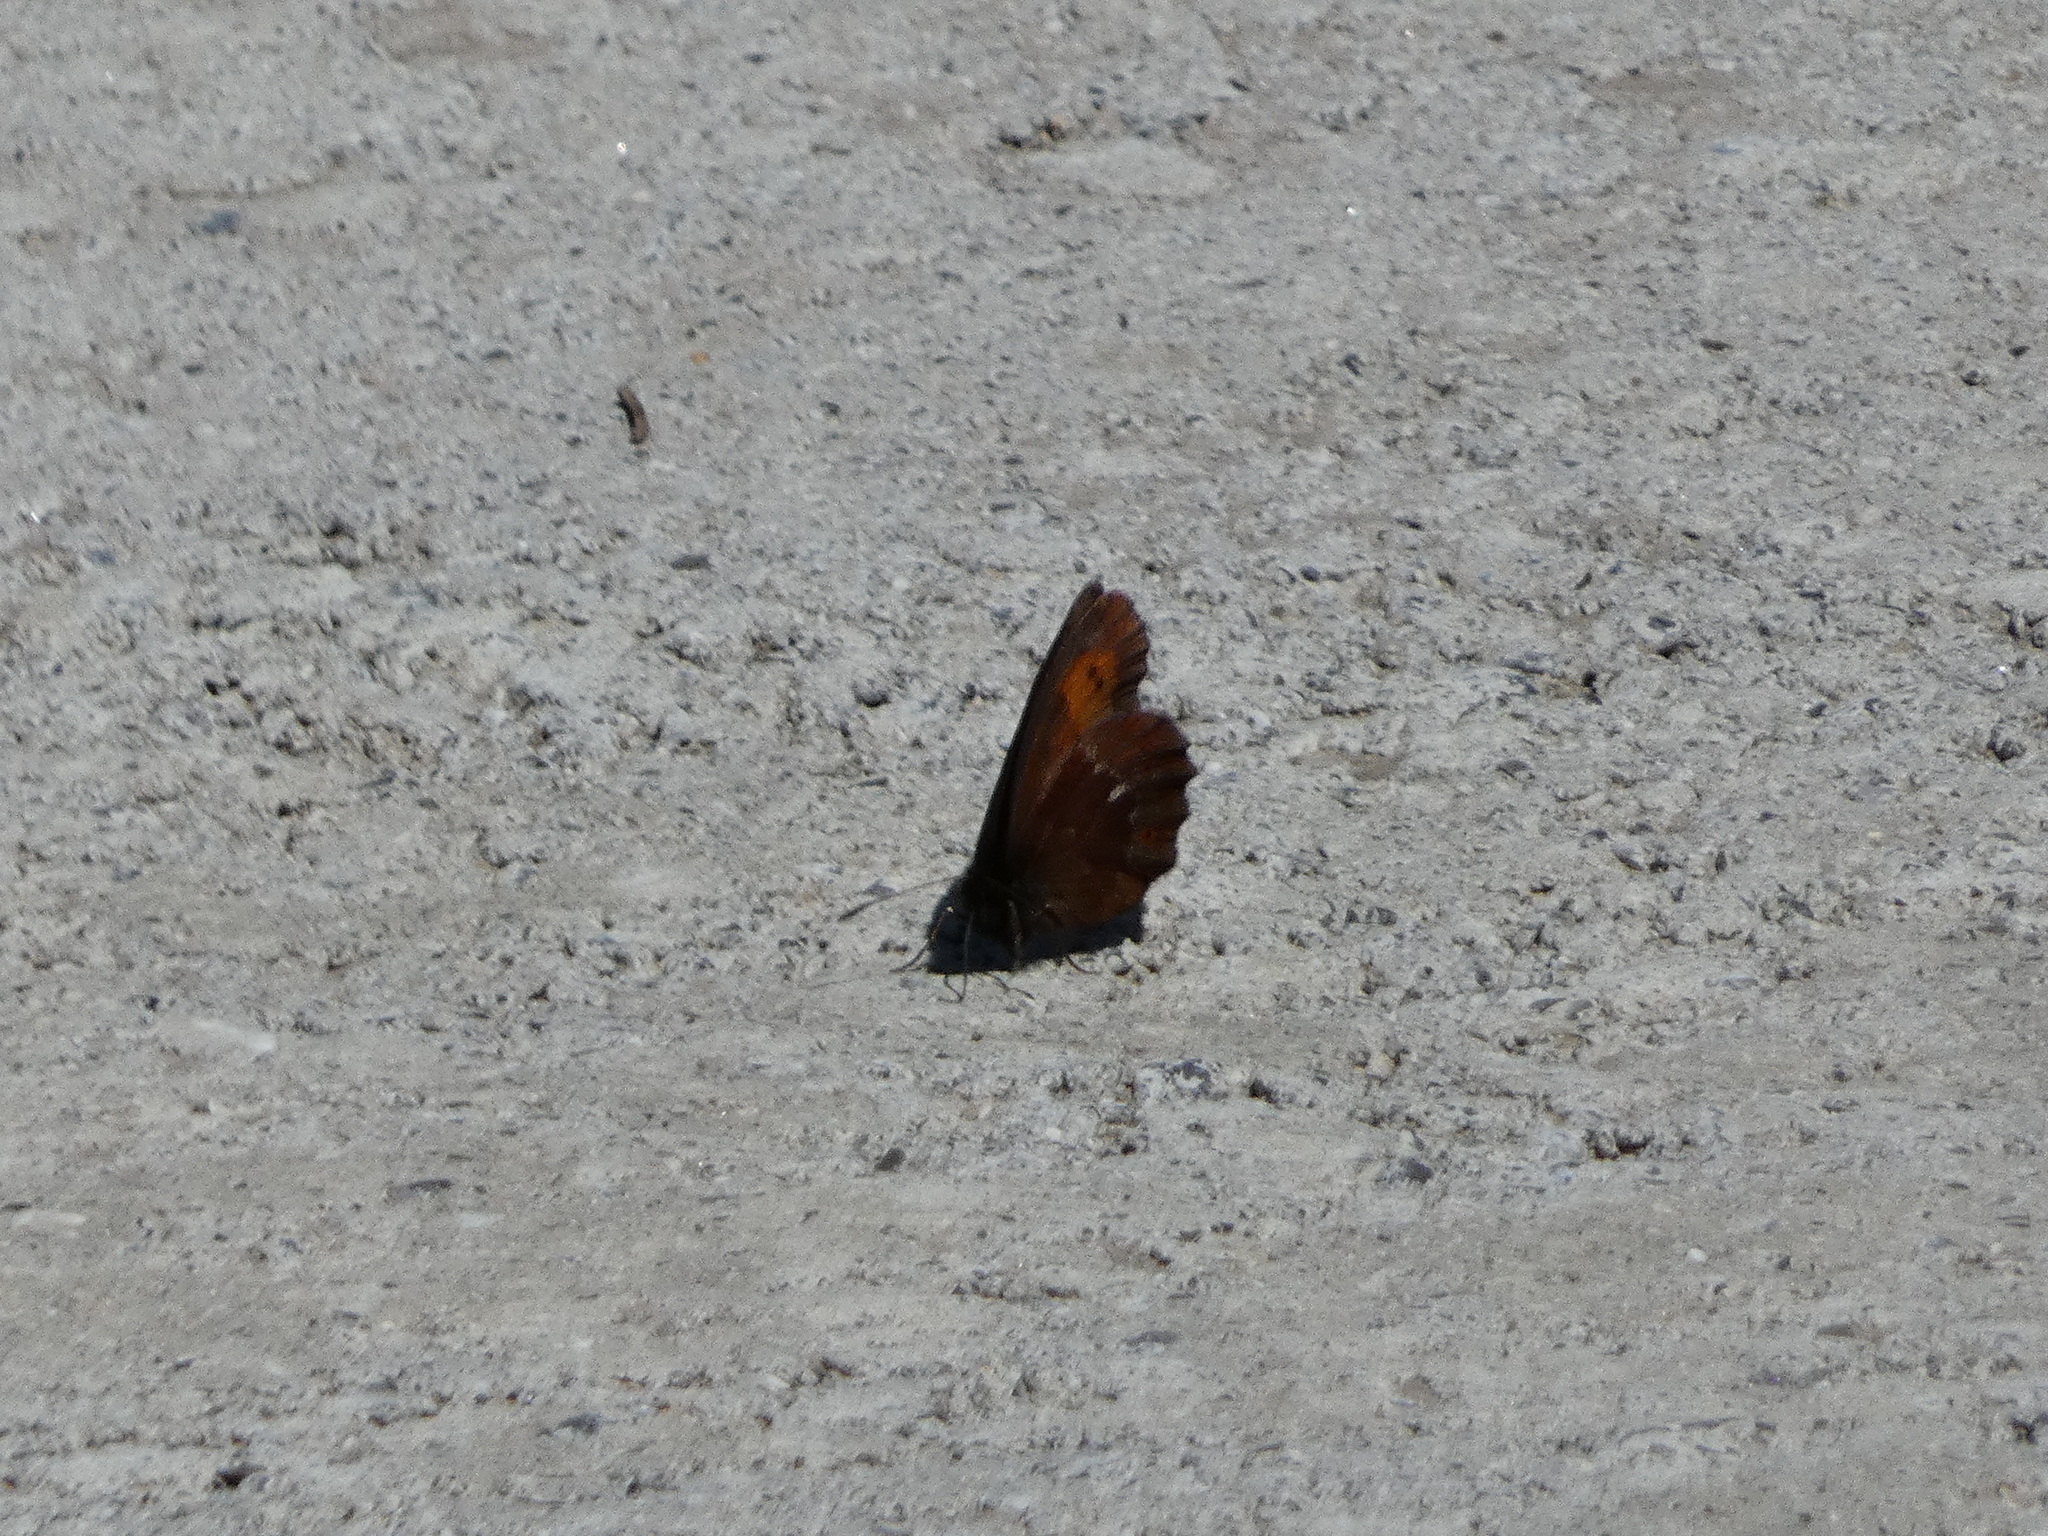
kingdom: Animalia
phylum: Arthropoda
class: Insecta
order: Lepidoptera
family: Nymphalidae
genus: Erebia
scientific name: Erebia euryale
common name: Large ringlet
